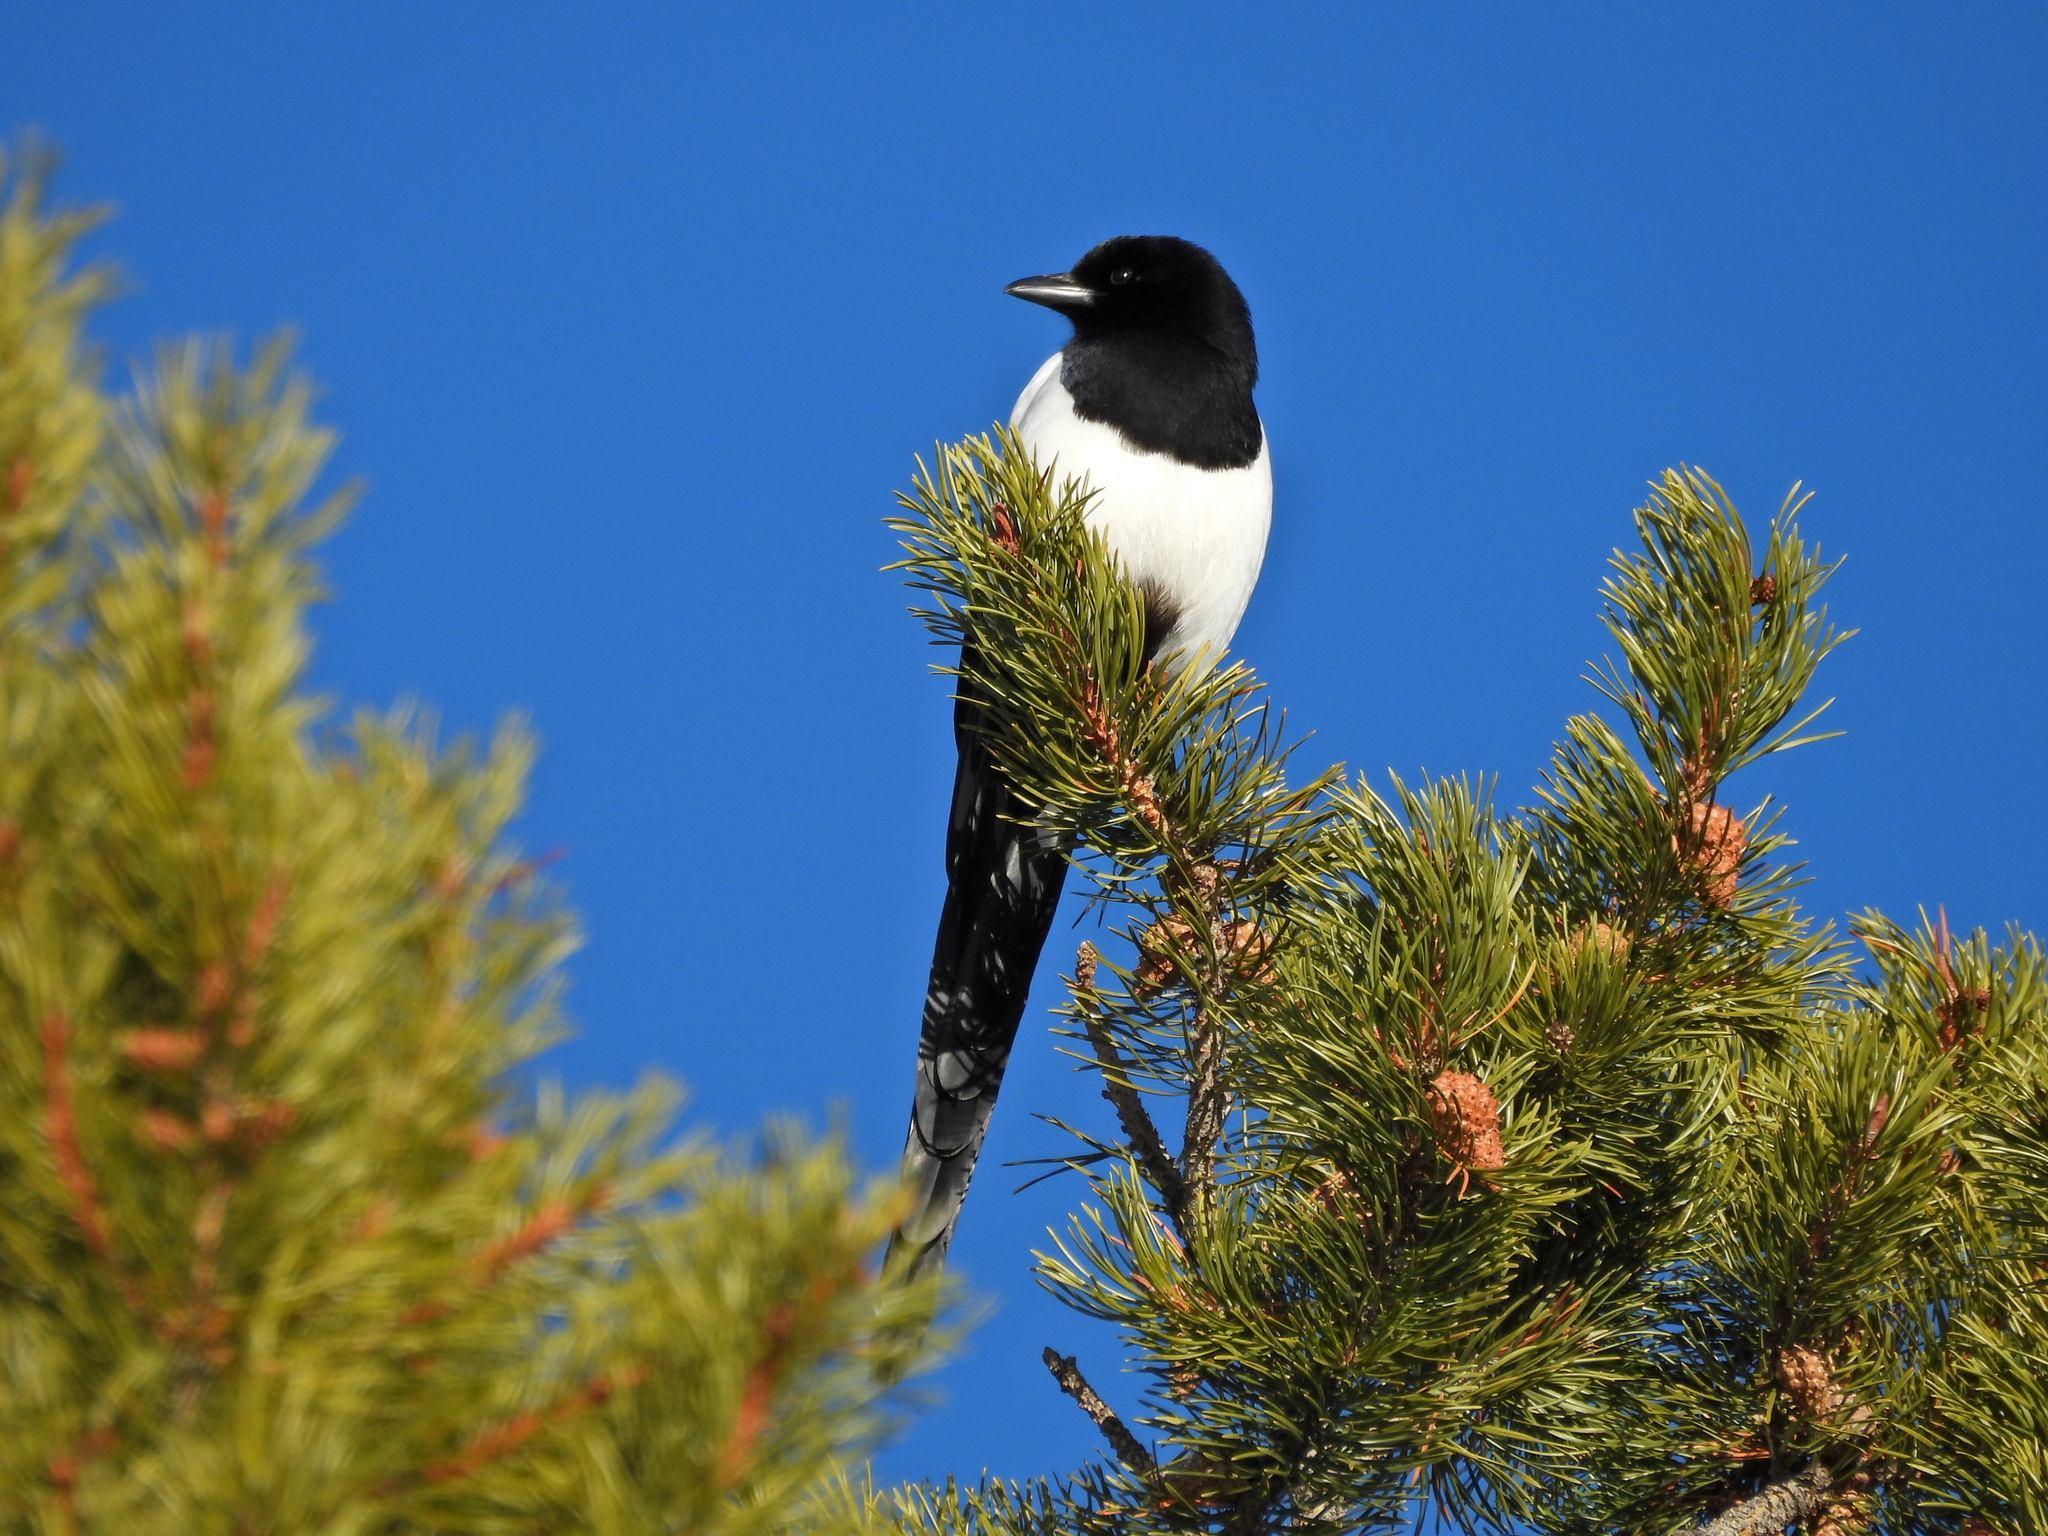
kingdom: Animalia
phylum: Chordata
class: Aves
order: Passeriformes
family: Corvidae
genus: Pica
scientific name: Pica hudsonia
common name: Black-billed magpie
